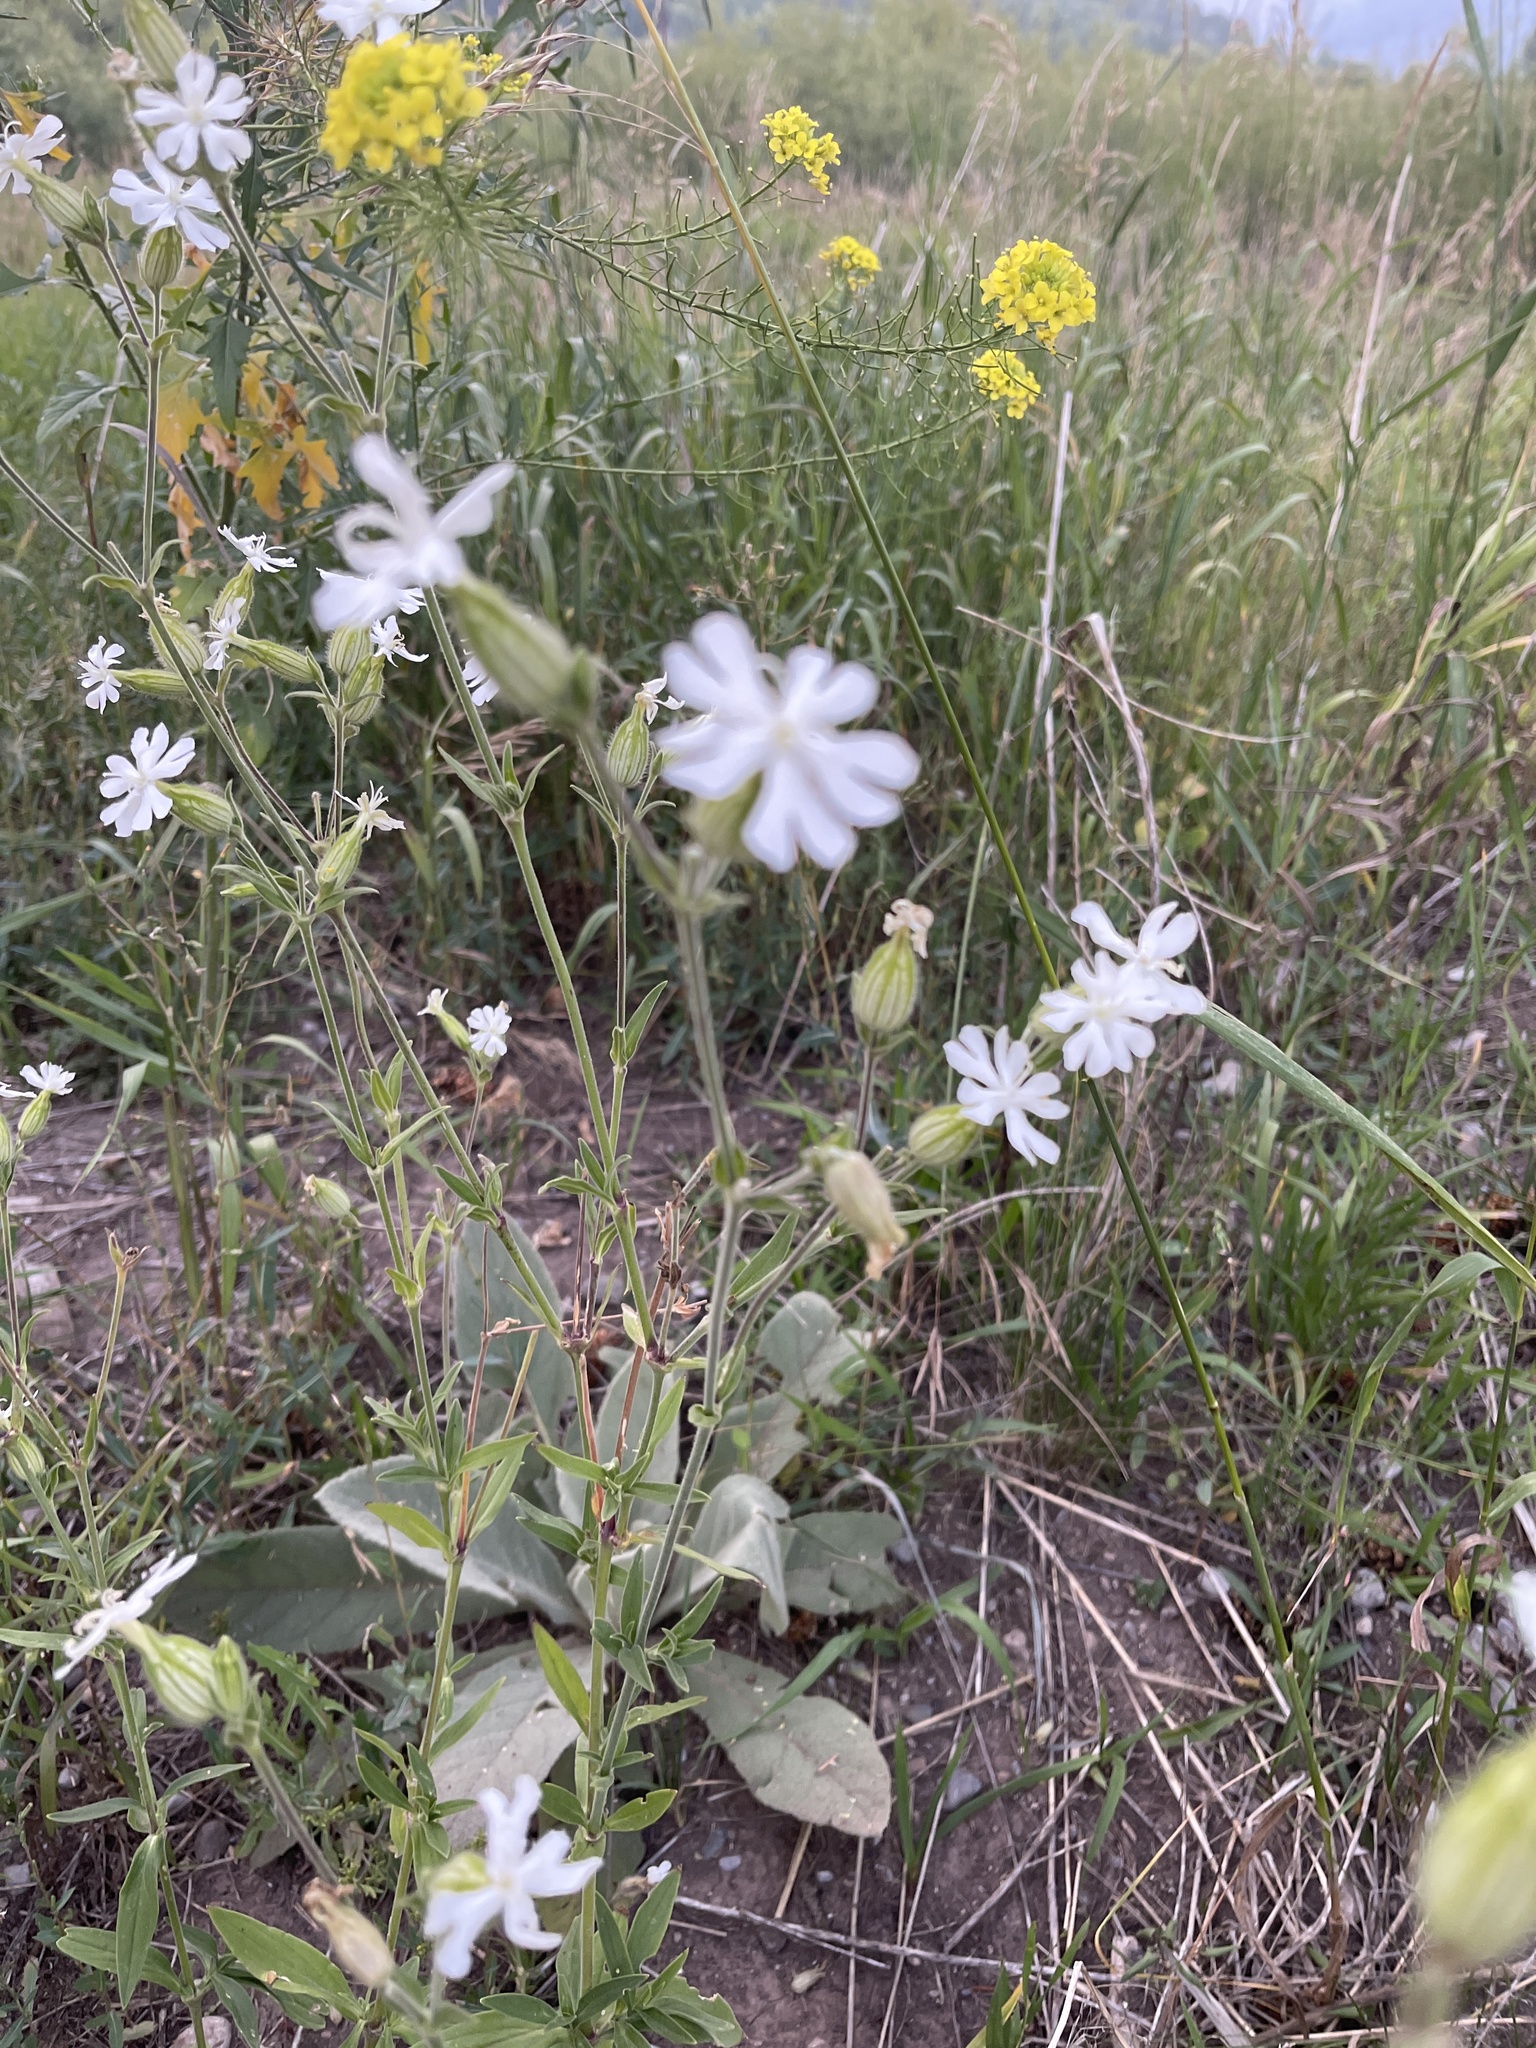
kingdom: Plantae
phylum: Tracheophyta
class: Magnoliopsida
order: Caryophyllales
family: Caryophyllaceae
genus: Silene
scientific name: Silene latifolia
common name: White campion
